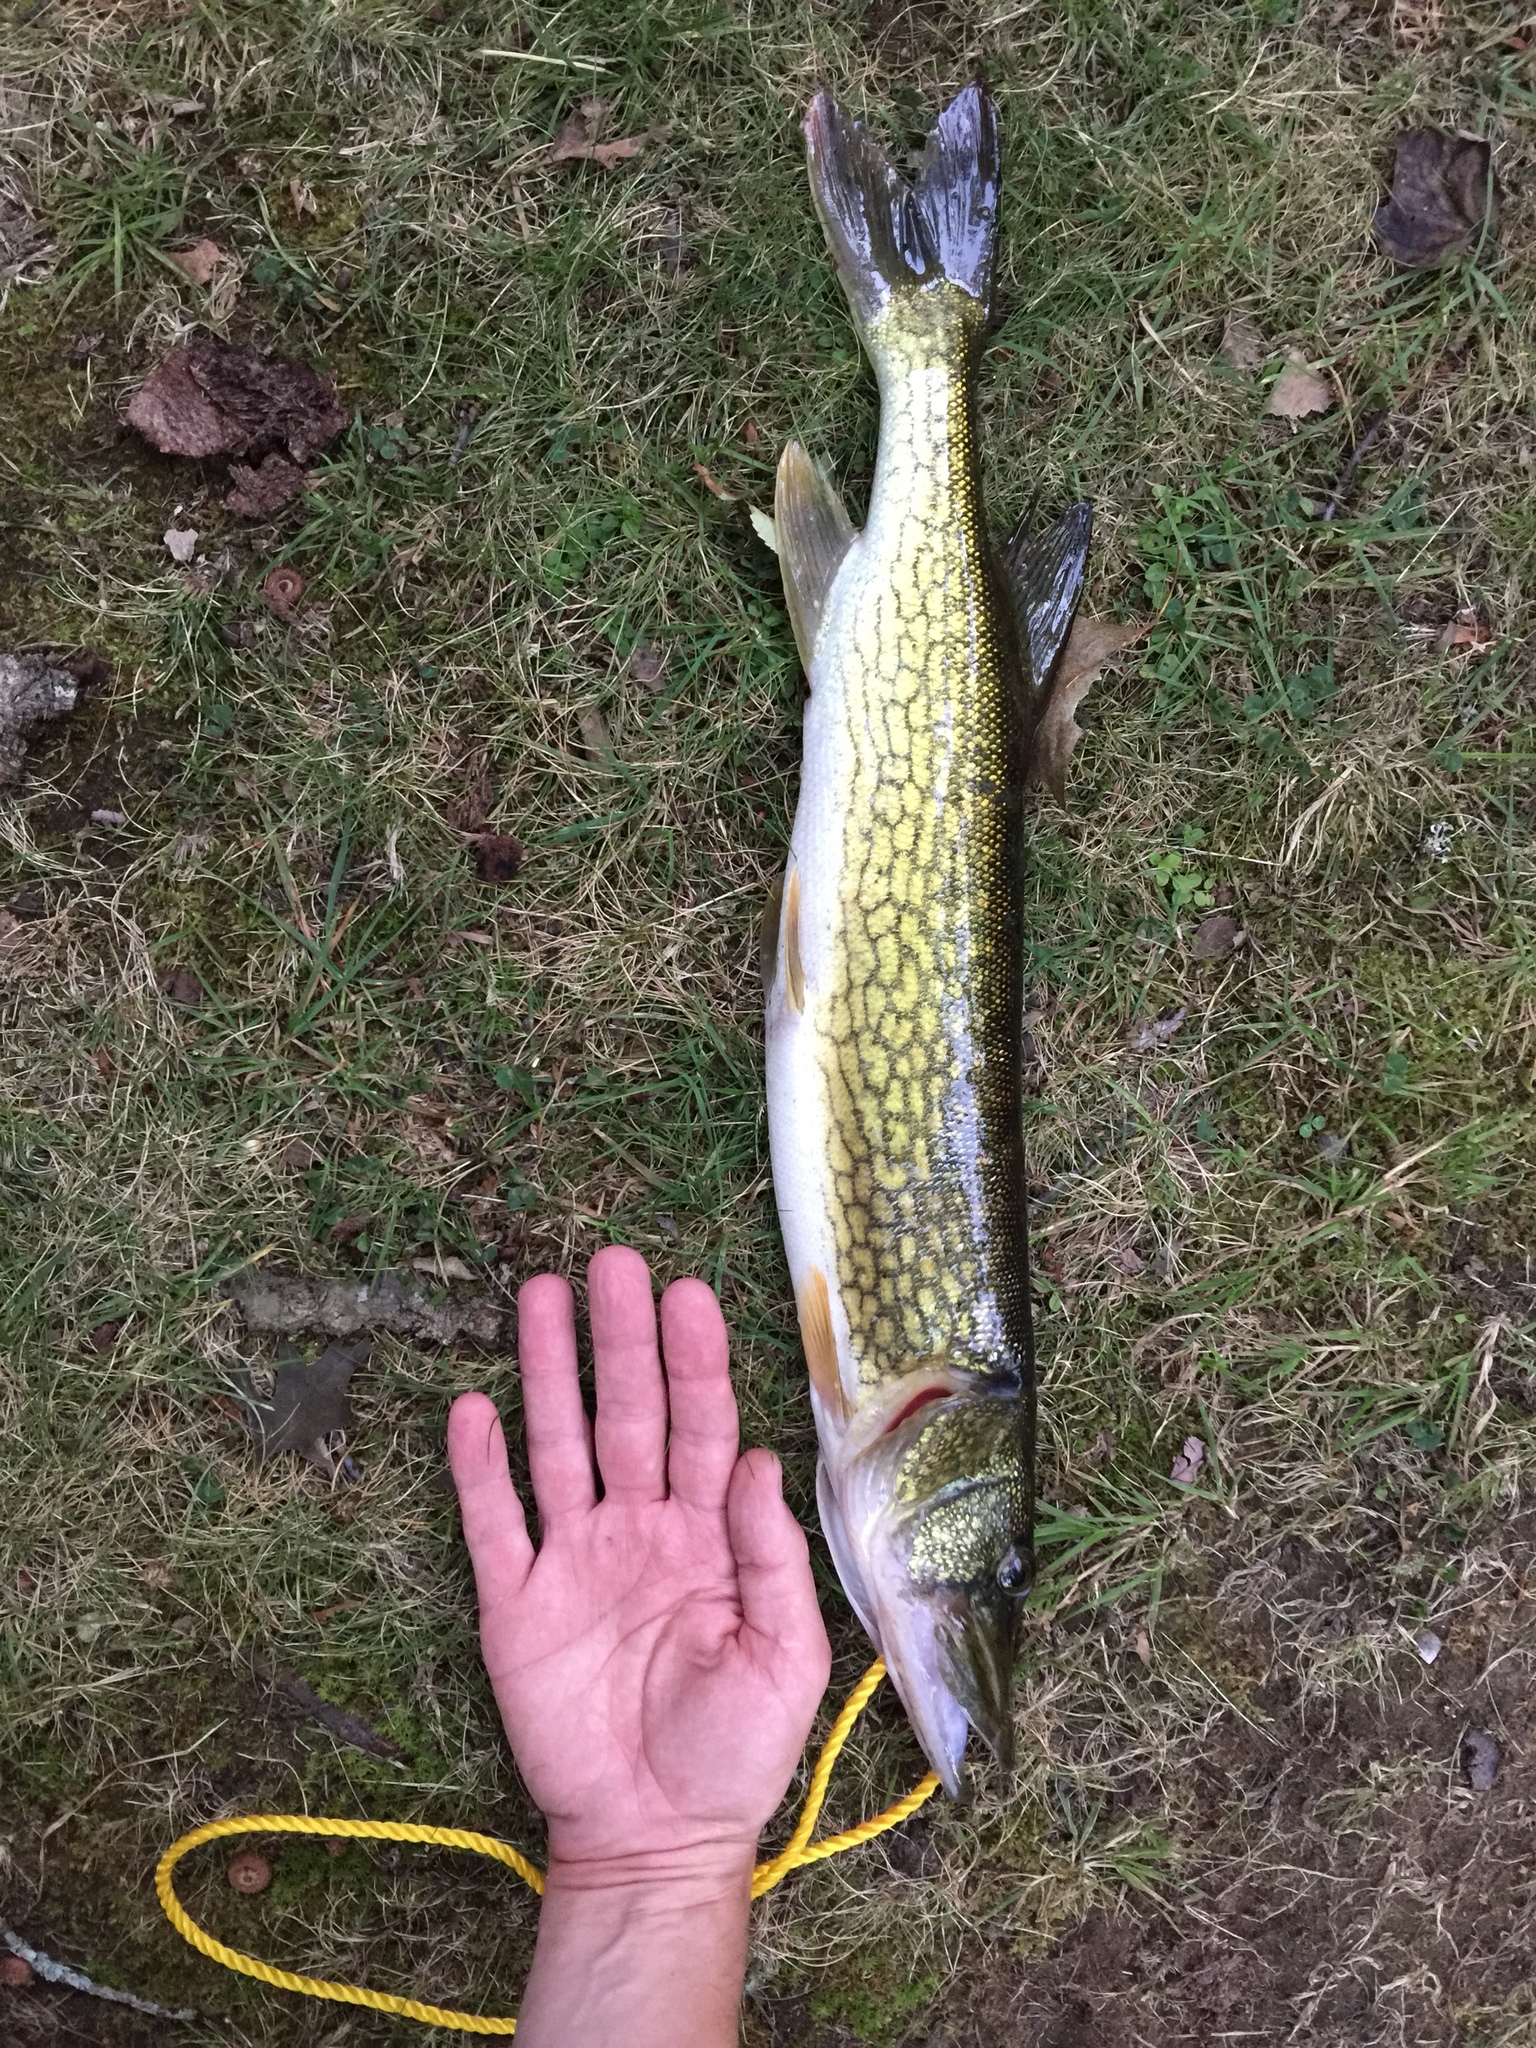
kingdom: Animalia
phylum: Chordata
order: Esociformes
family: Esocidae
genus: Esox
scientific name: Esox niger
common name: Chain pickerel
